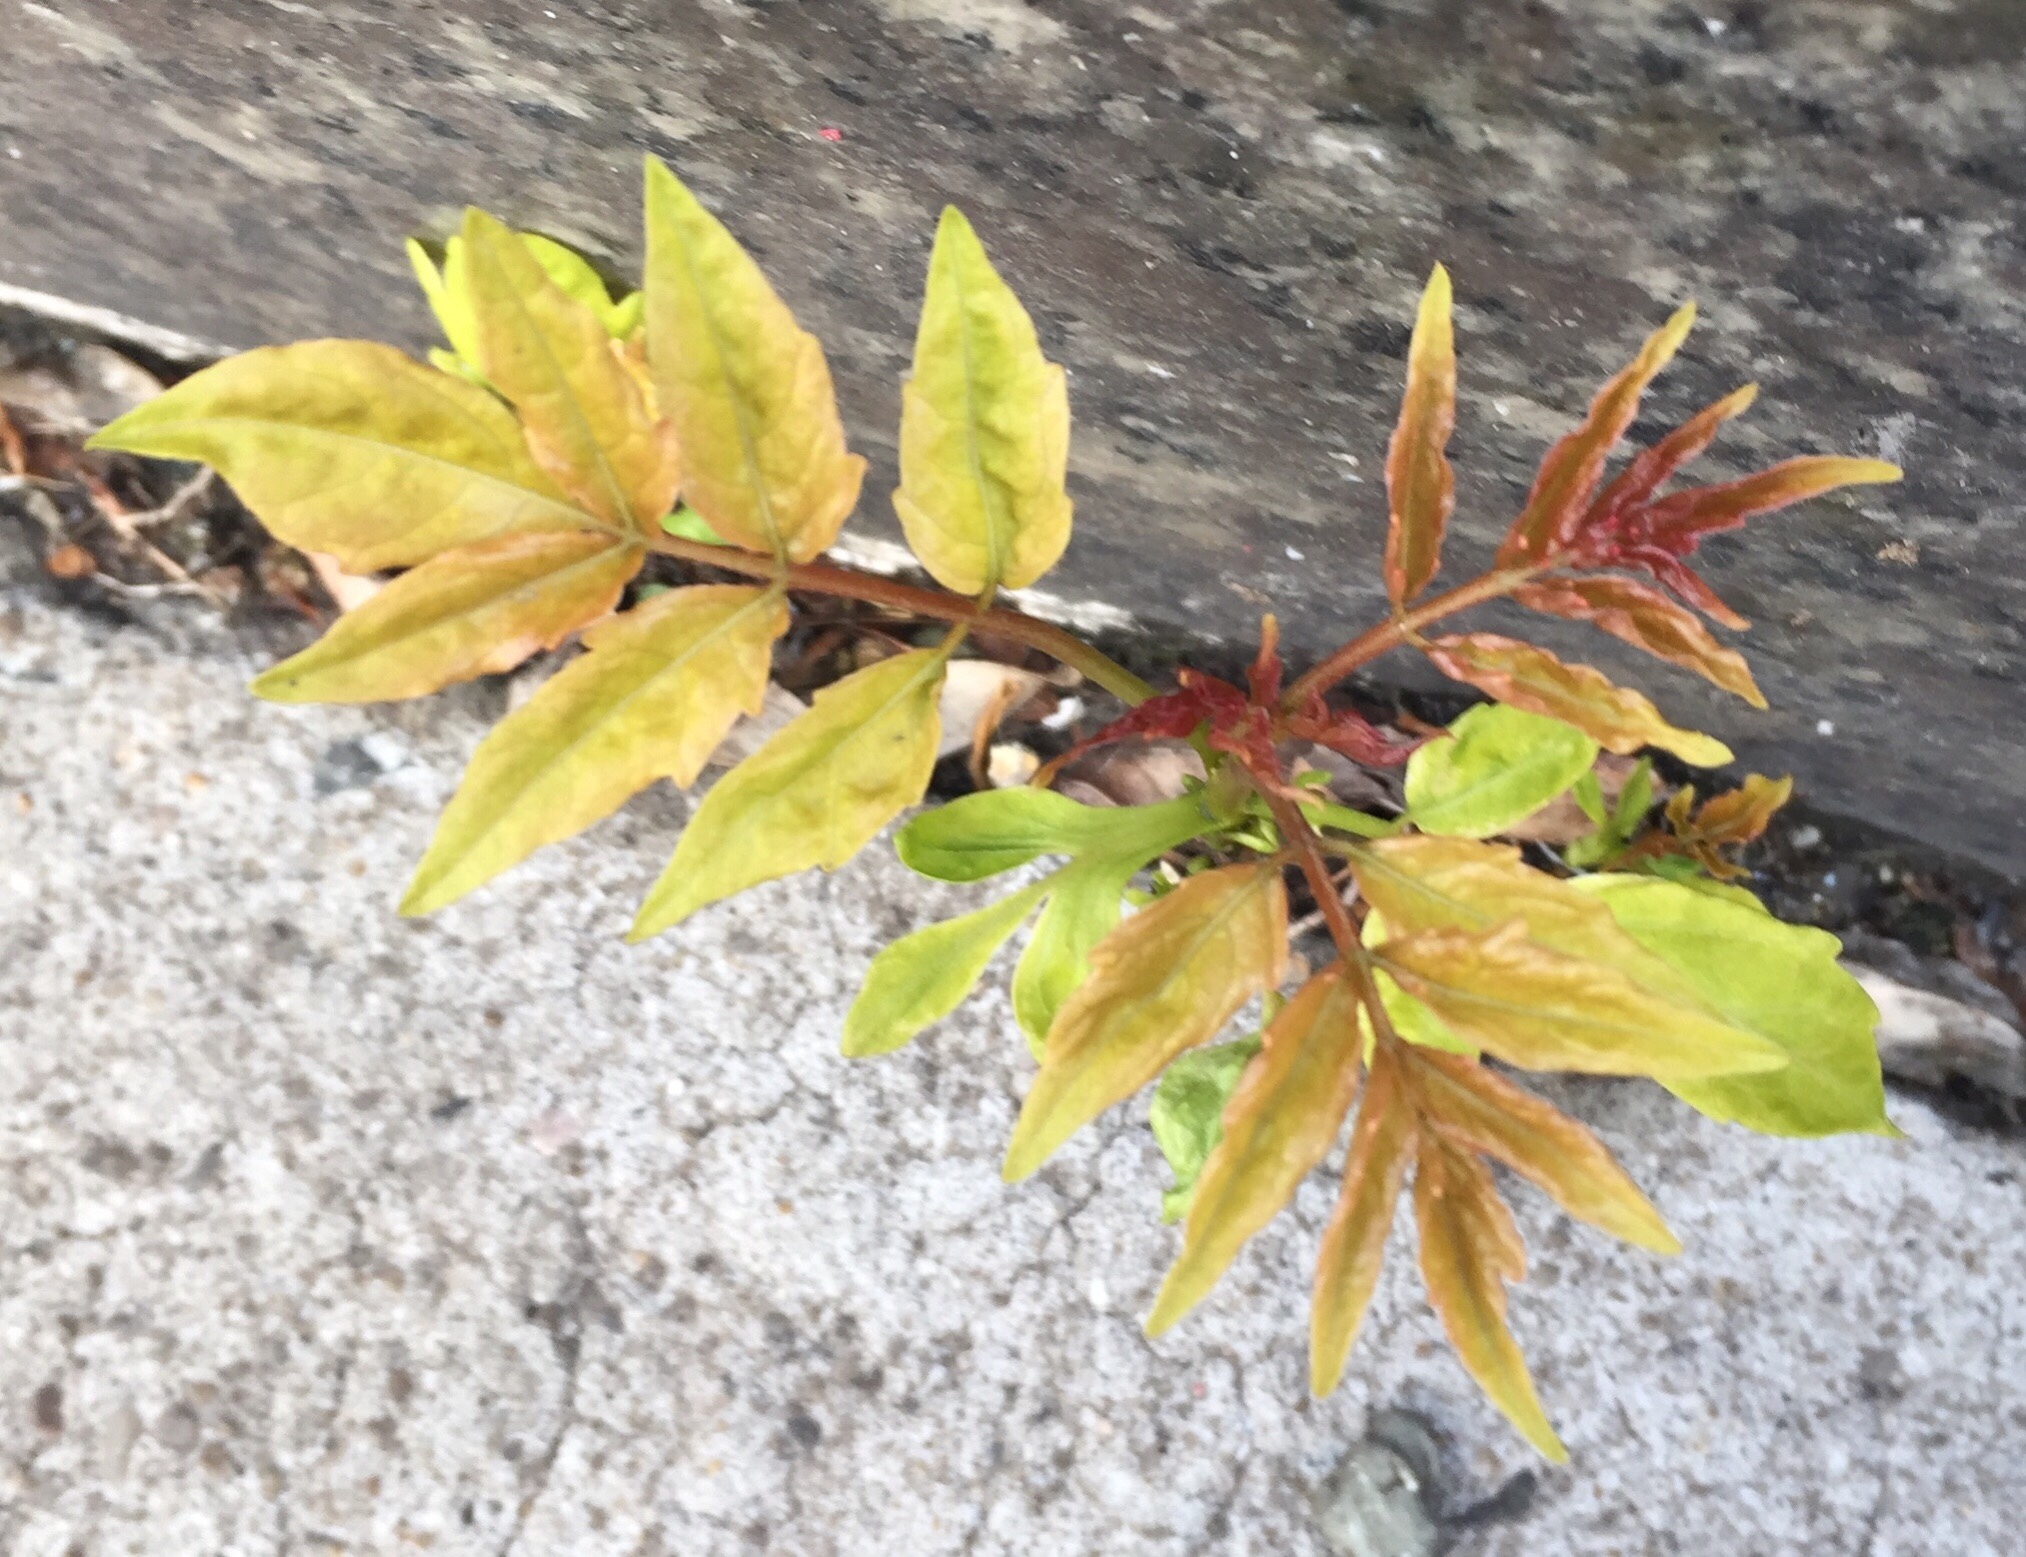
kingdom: Plantae
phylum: Tracheophyta
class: Magnoliopsida
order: Sapindales
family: Simaroubaceae
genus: Ailanthus
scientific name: Ailanthus altissima
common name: Tree-of-heaven
